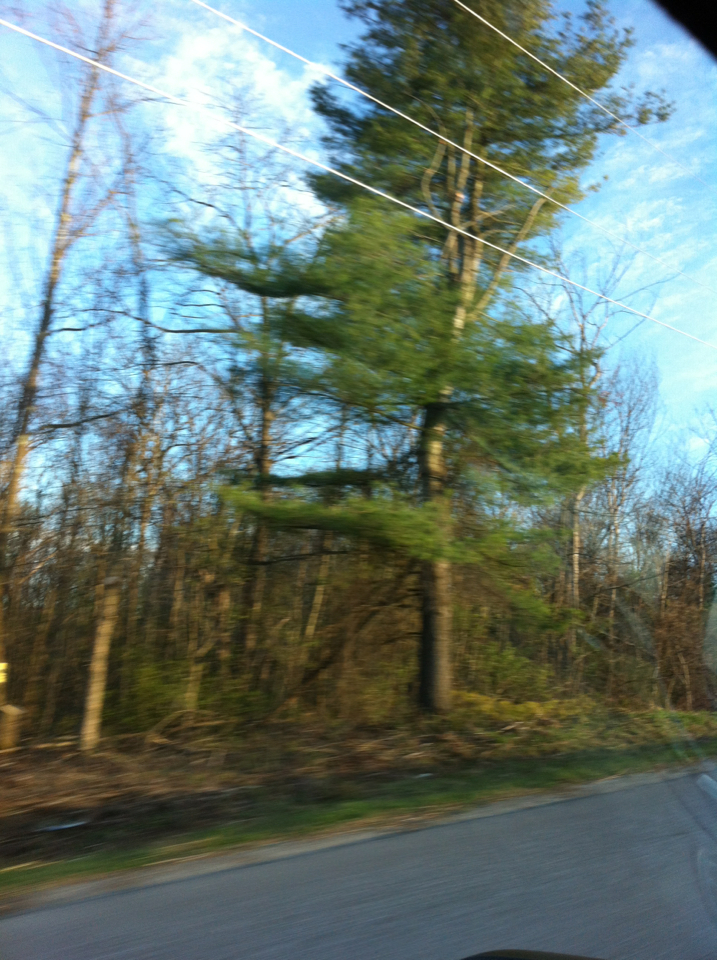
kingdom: Plantae
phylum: Tracheophyta
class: Pinopsida
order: Pinales
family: Pinaceae
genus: Pinus
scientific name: Pinus strobus
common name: Weymouth pine
